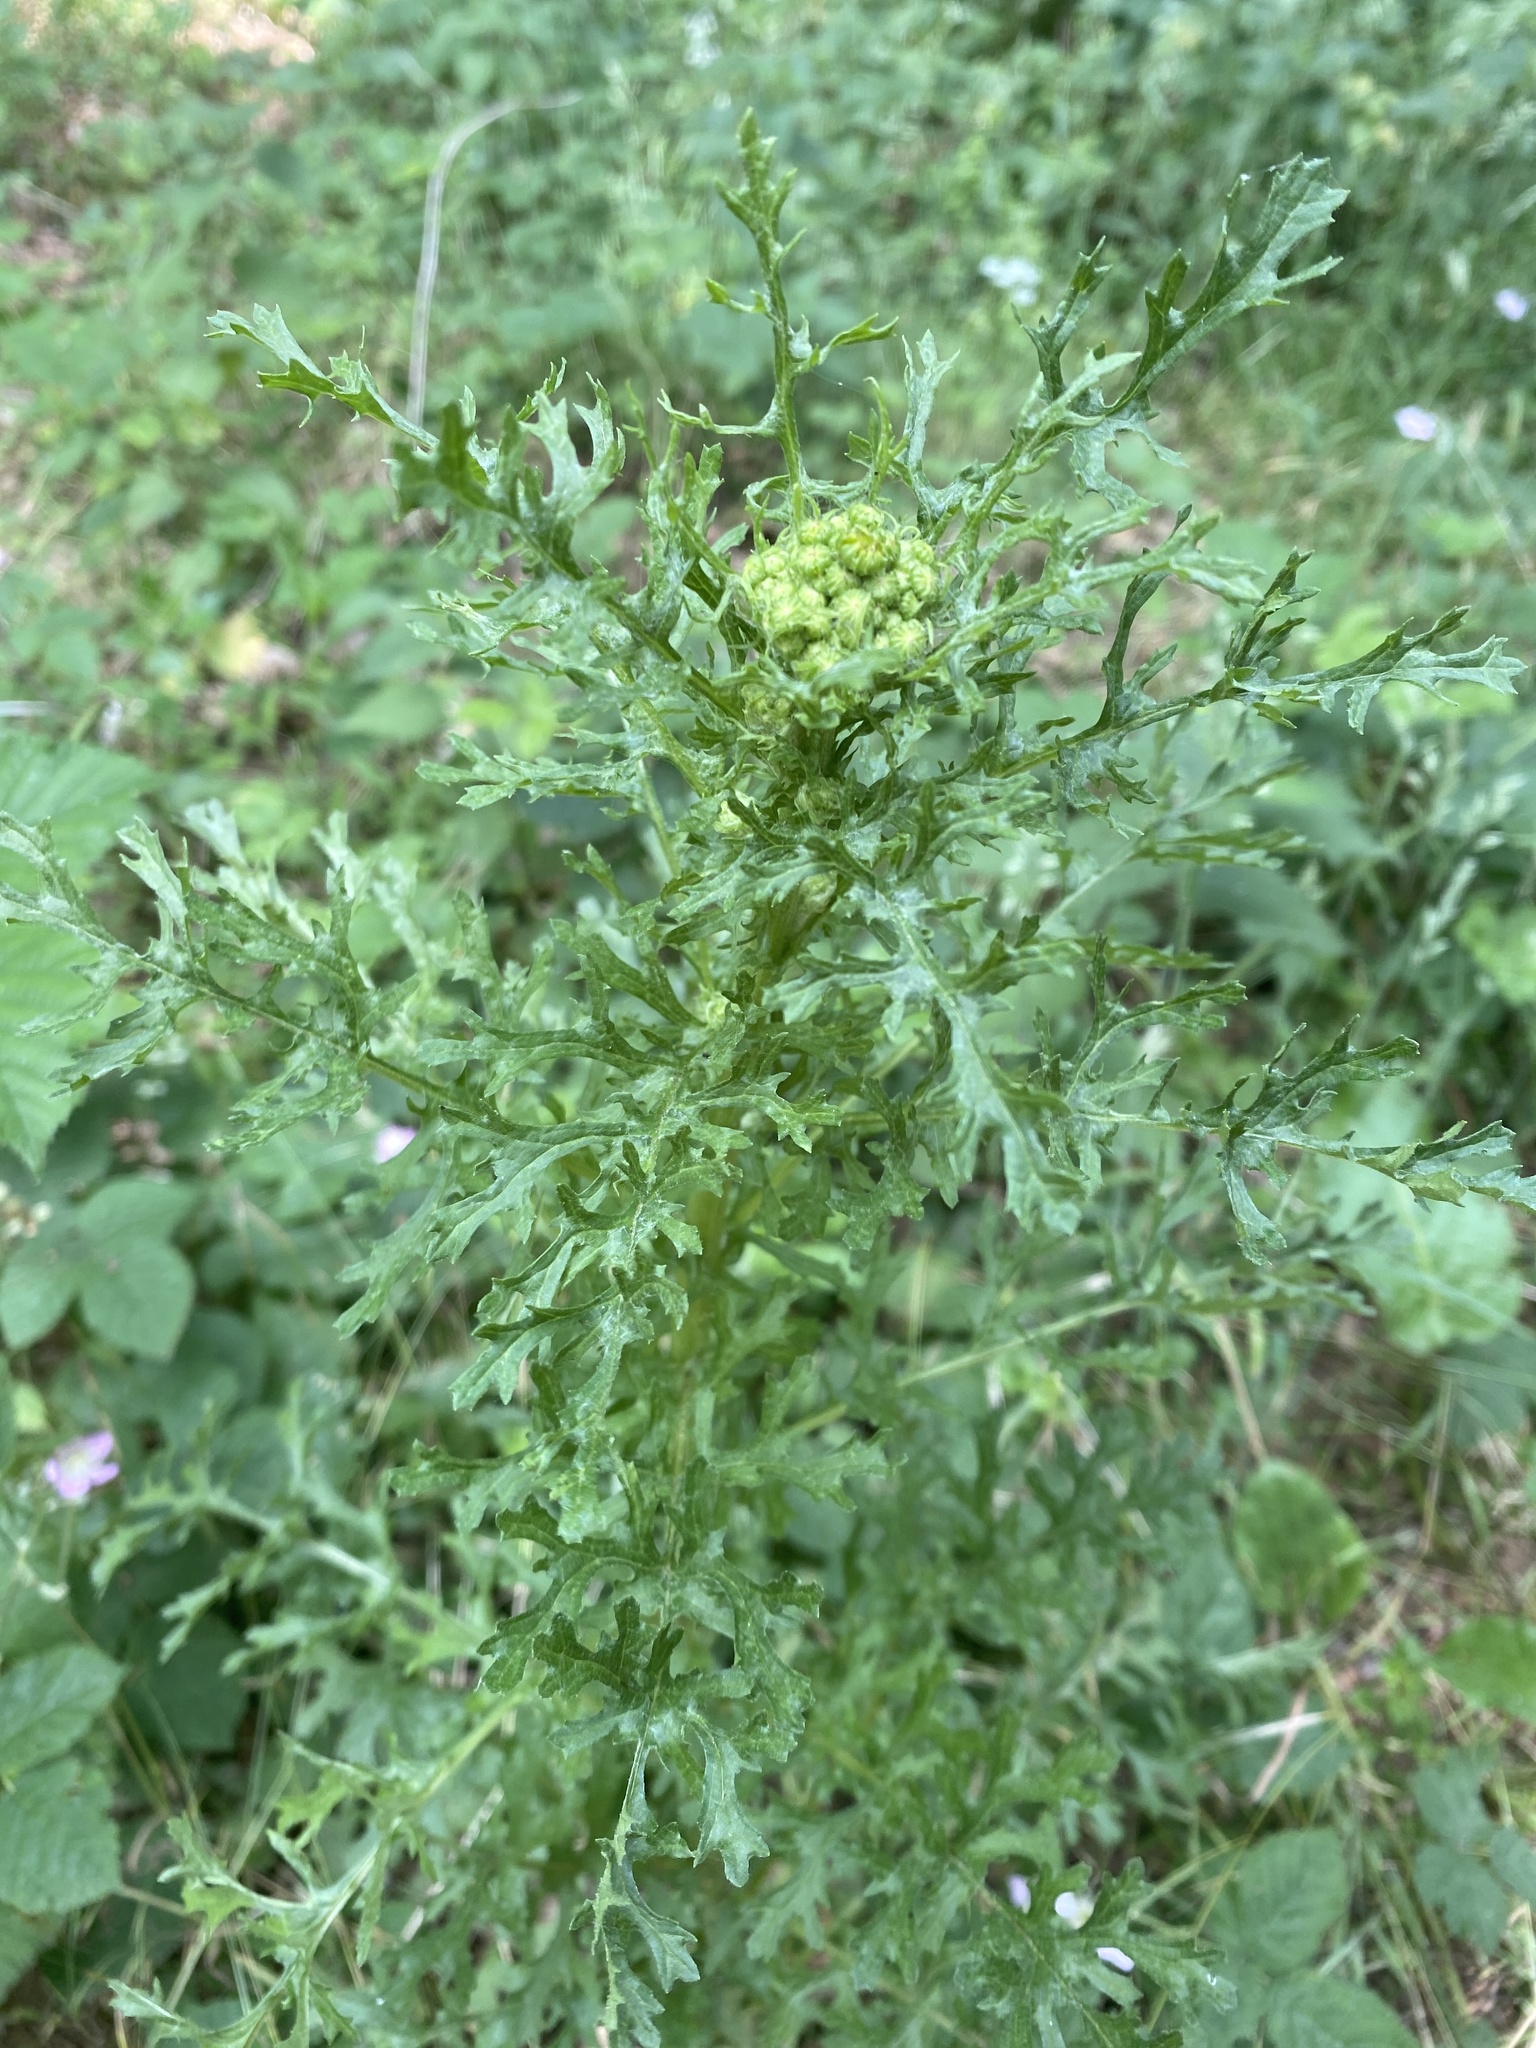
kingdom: Plantae
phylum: Tracheophyta
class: Magnoliopsida
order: Asterales
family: Asteraceae
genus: Jacobaea
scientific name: Jacobaea vulgaris
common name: Stinking willie
